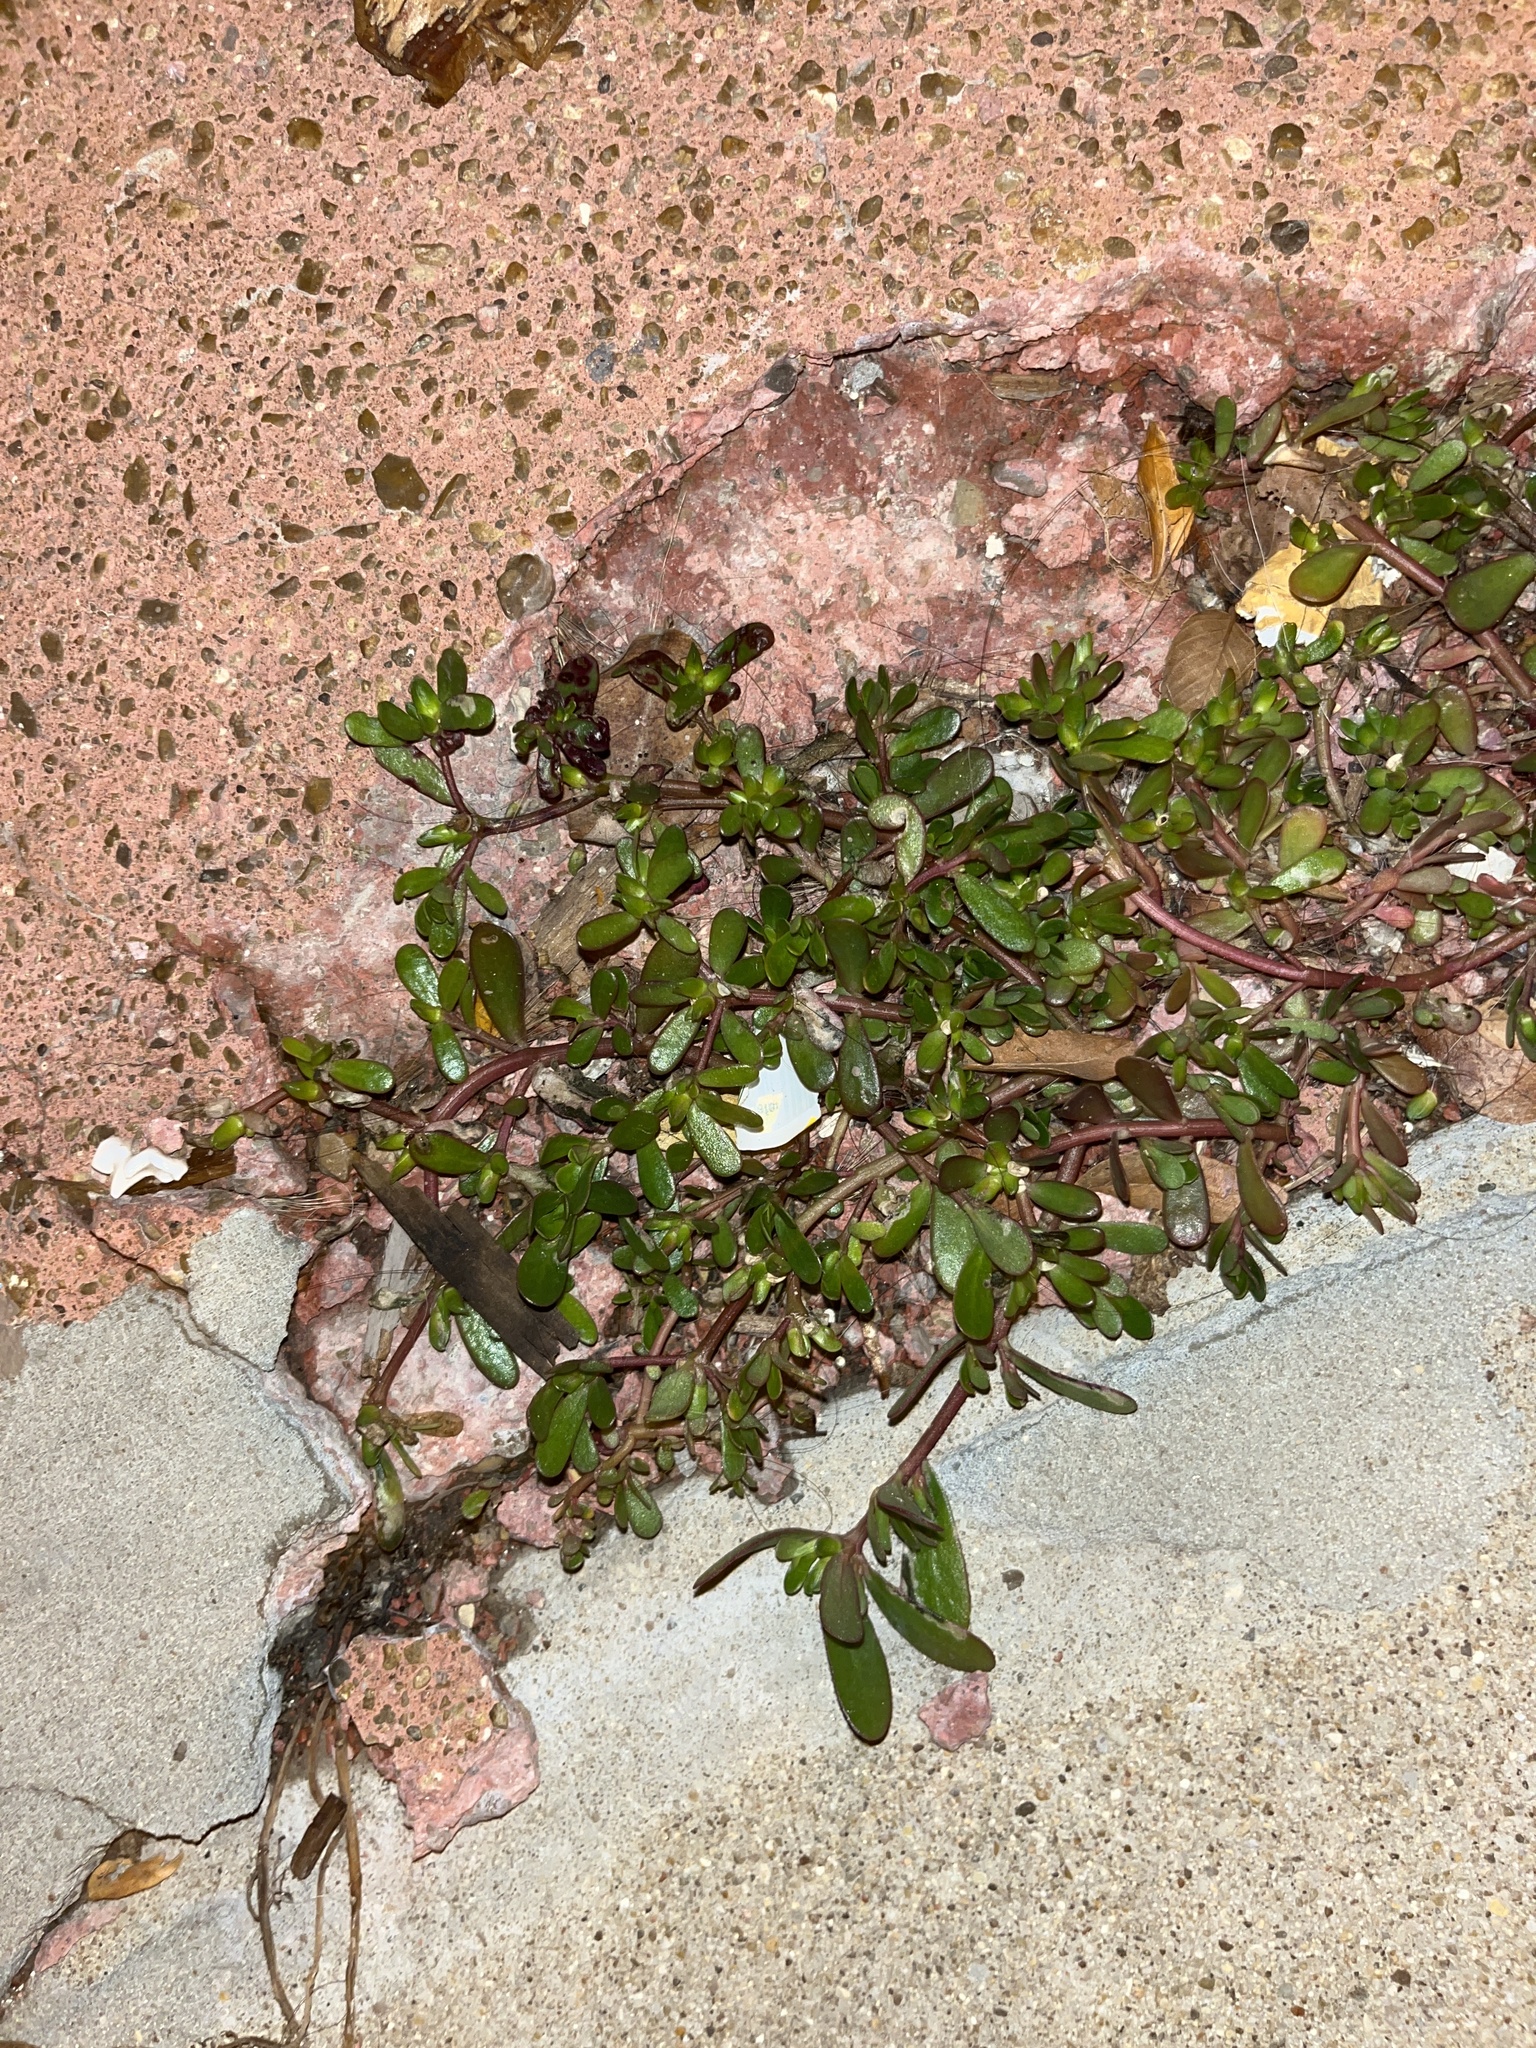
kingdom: Plantae
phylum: Tracheophyta
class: Magnoliopsida
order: Caryophyllales
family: Portulacaceae
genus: Portulaca
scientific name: Portulaca oleracea
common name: Common purslane
